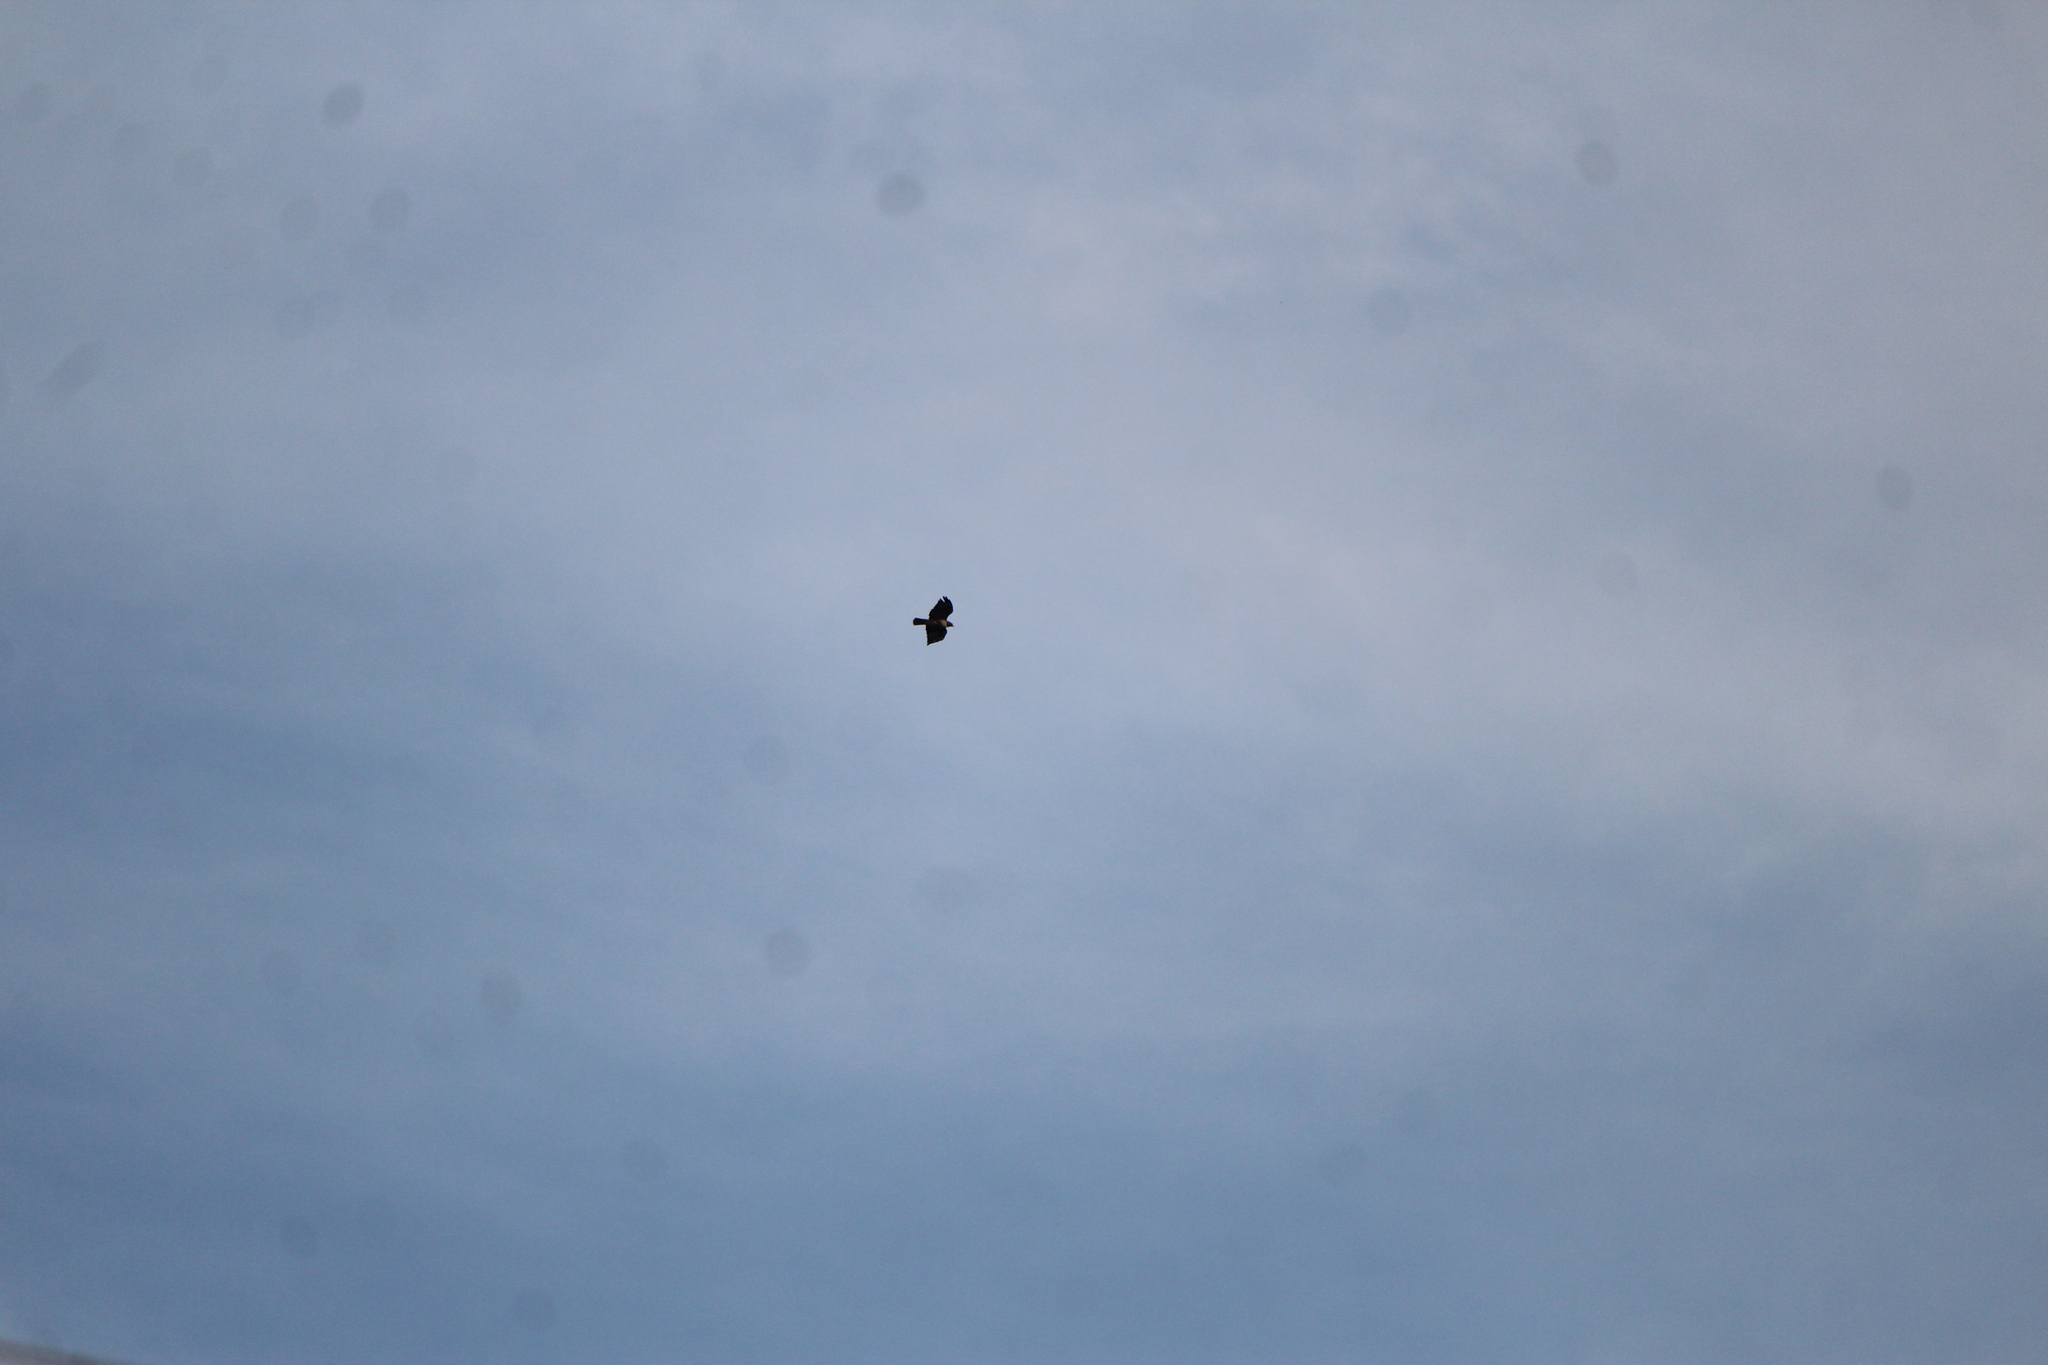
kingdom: Animalia
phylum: Chordata
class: Aves
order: Accipitriformes
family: Accipitridae
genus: Buteo
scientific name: Buteo jamaicensis
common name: Red-tailed hawk
